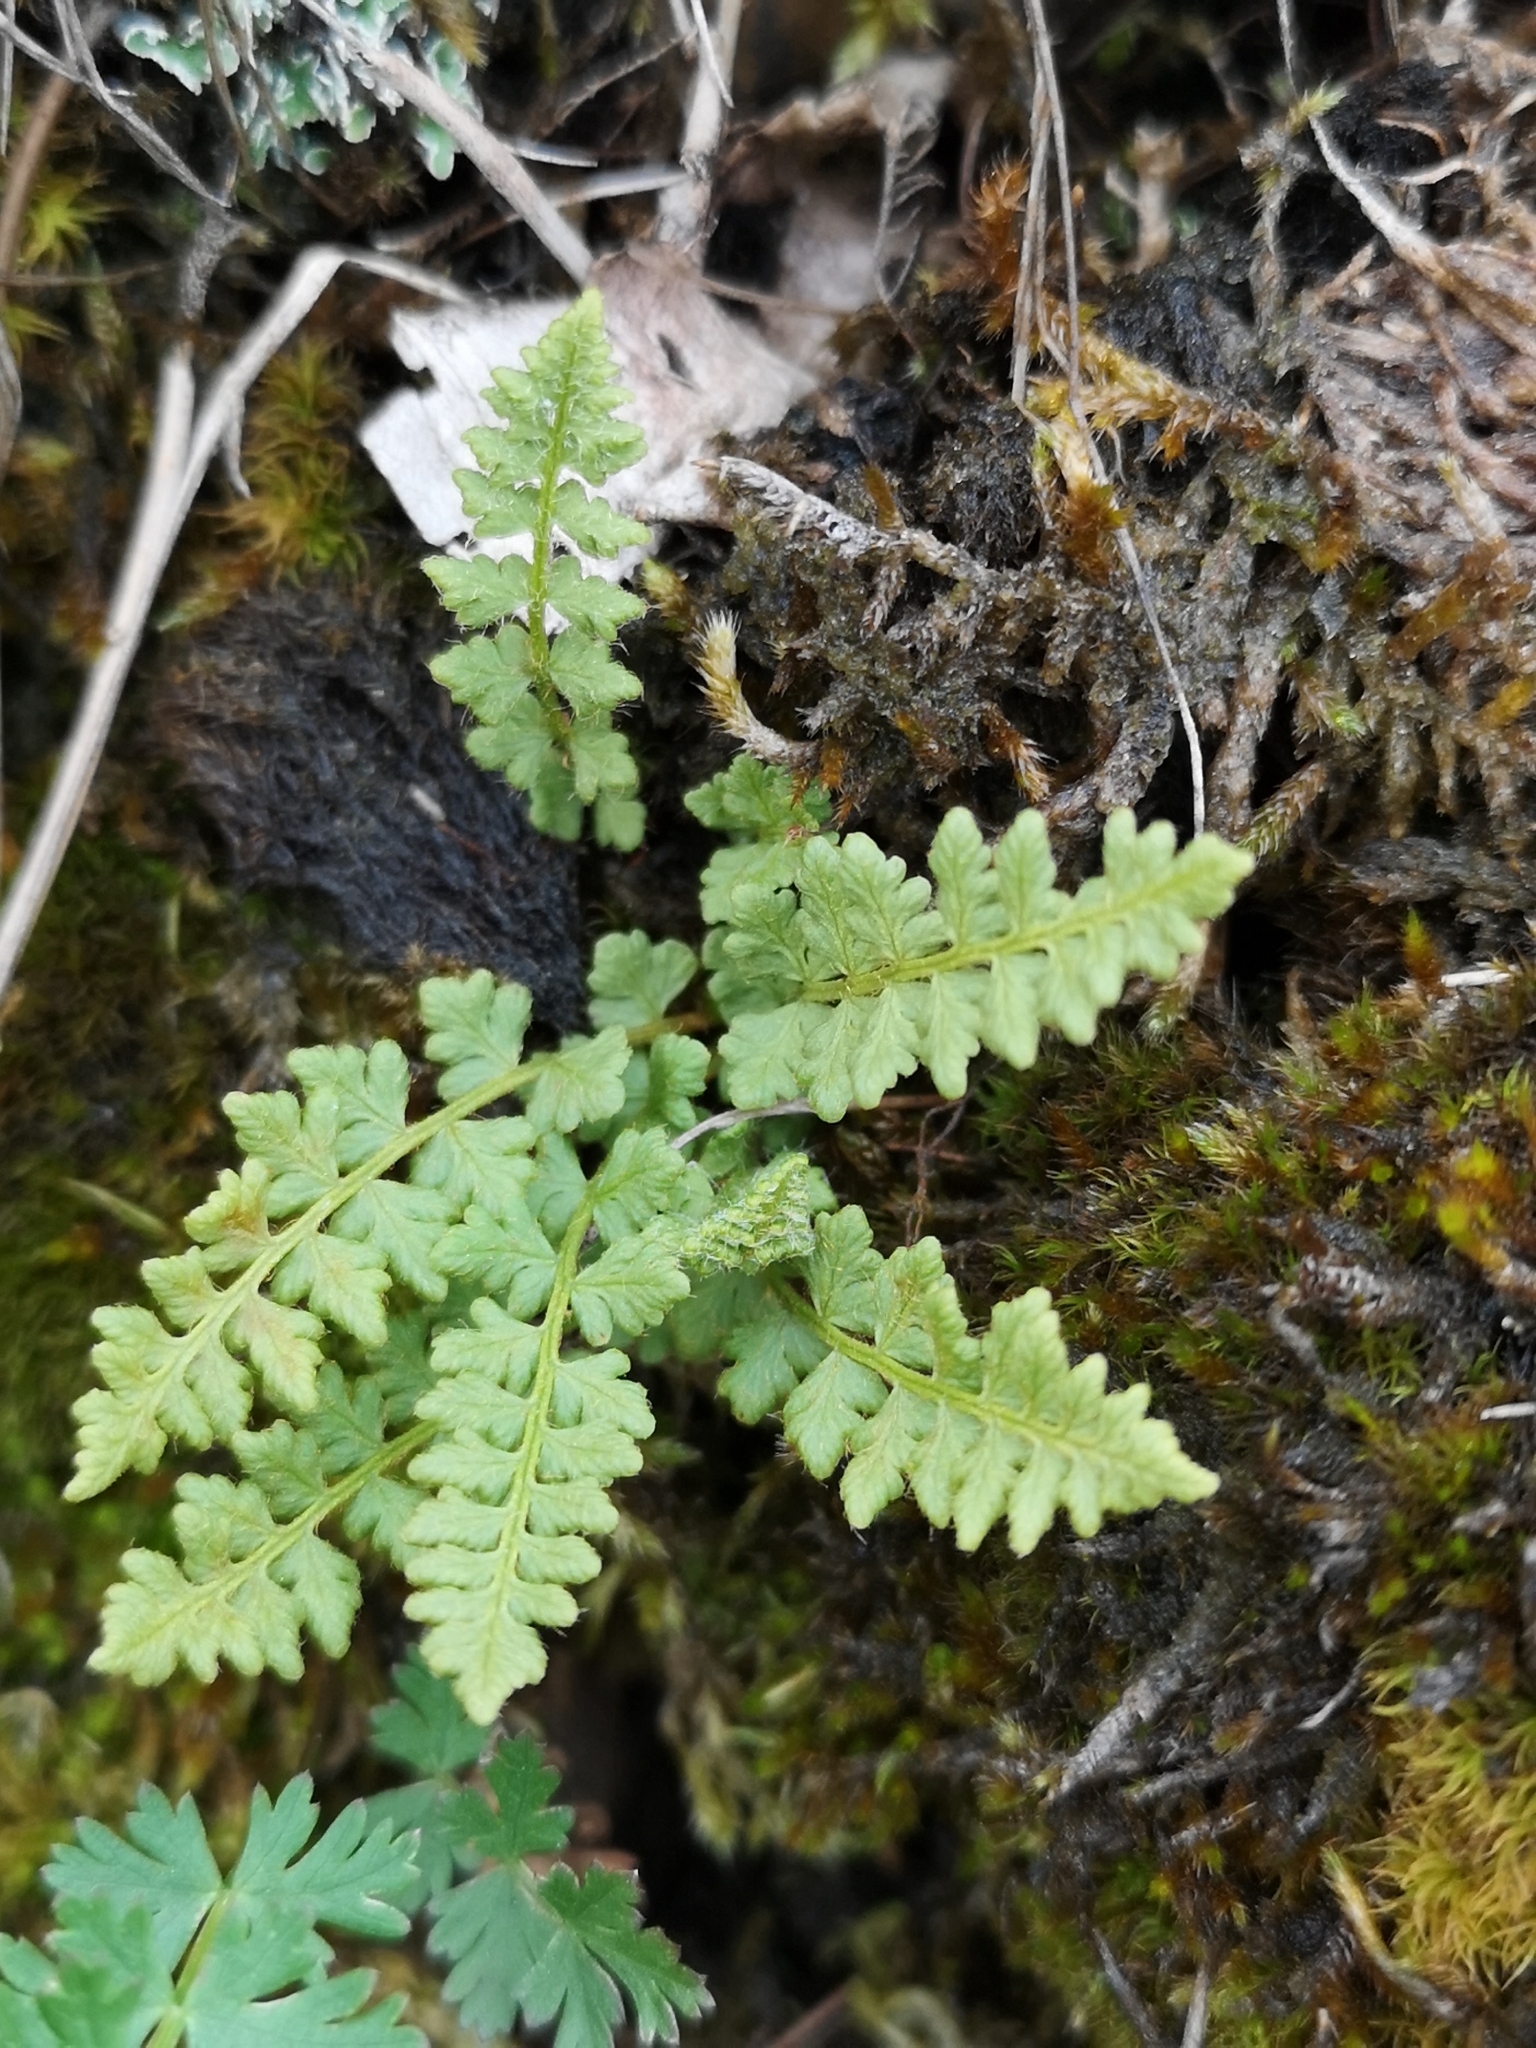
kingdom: Plantae
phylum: Tracheophyta
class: Polypodiopsida
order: Polypodiales
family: Woodsiaceae
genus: Woodsia
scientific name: Woodsia alpina
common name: Alpine woodsia
